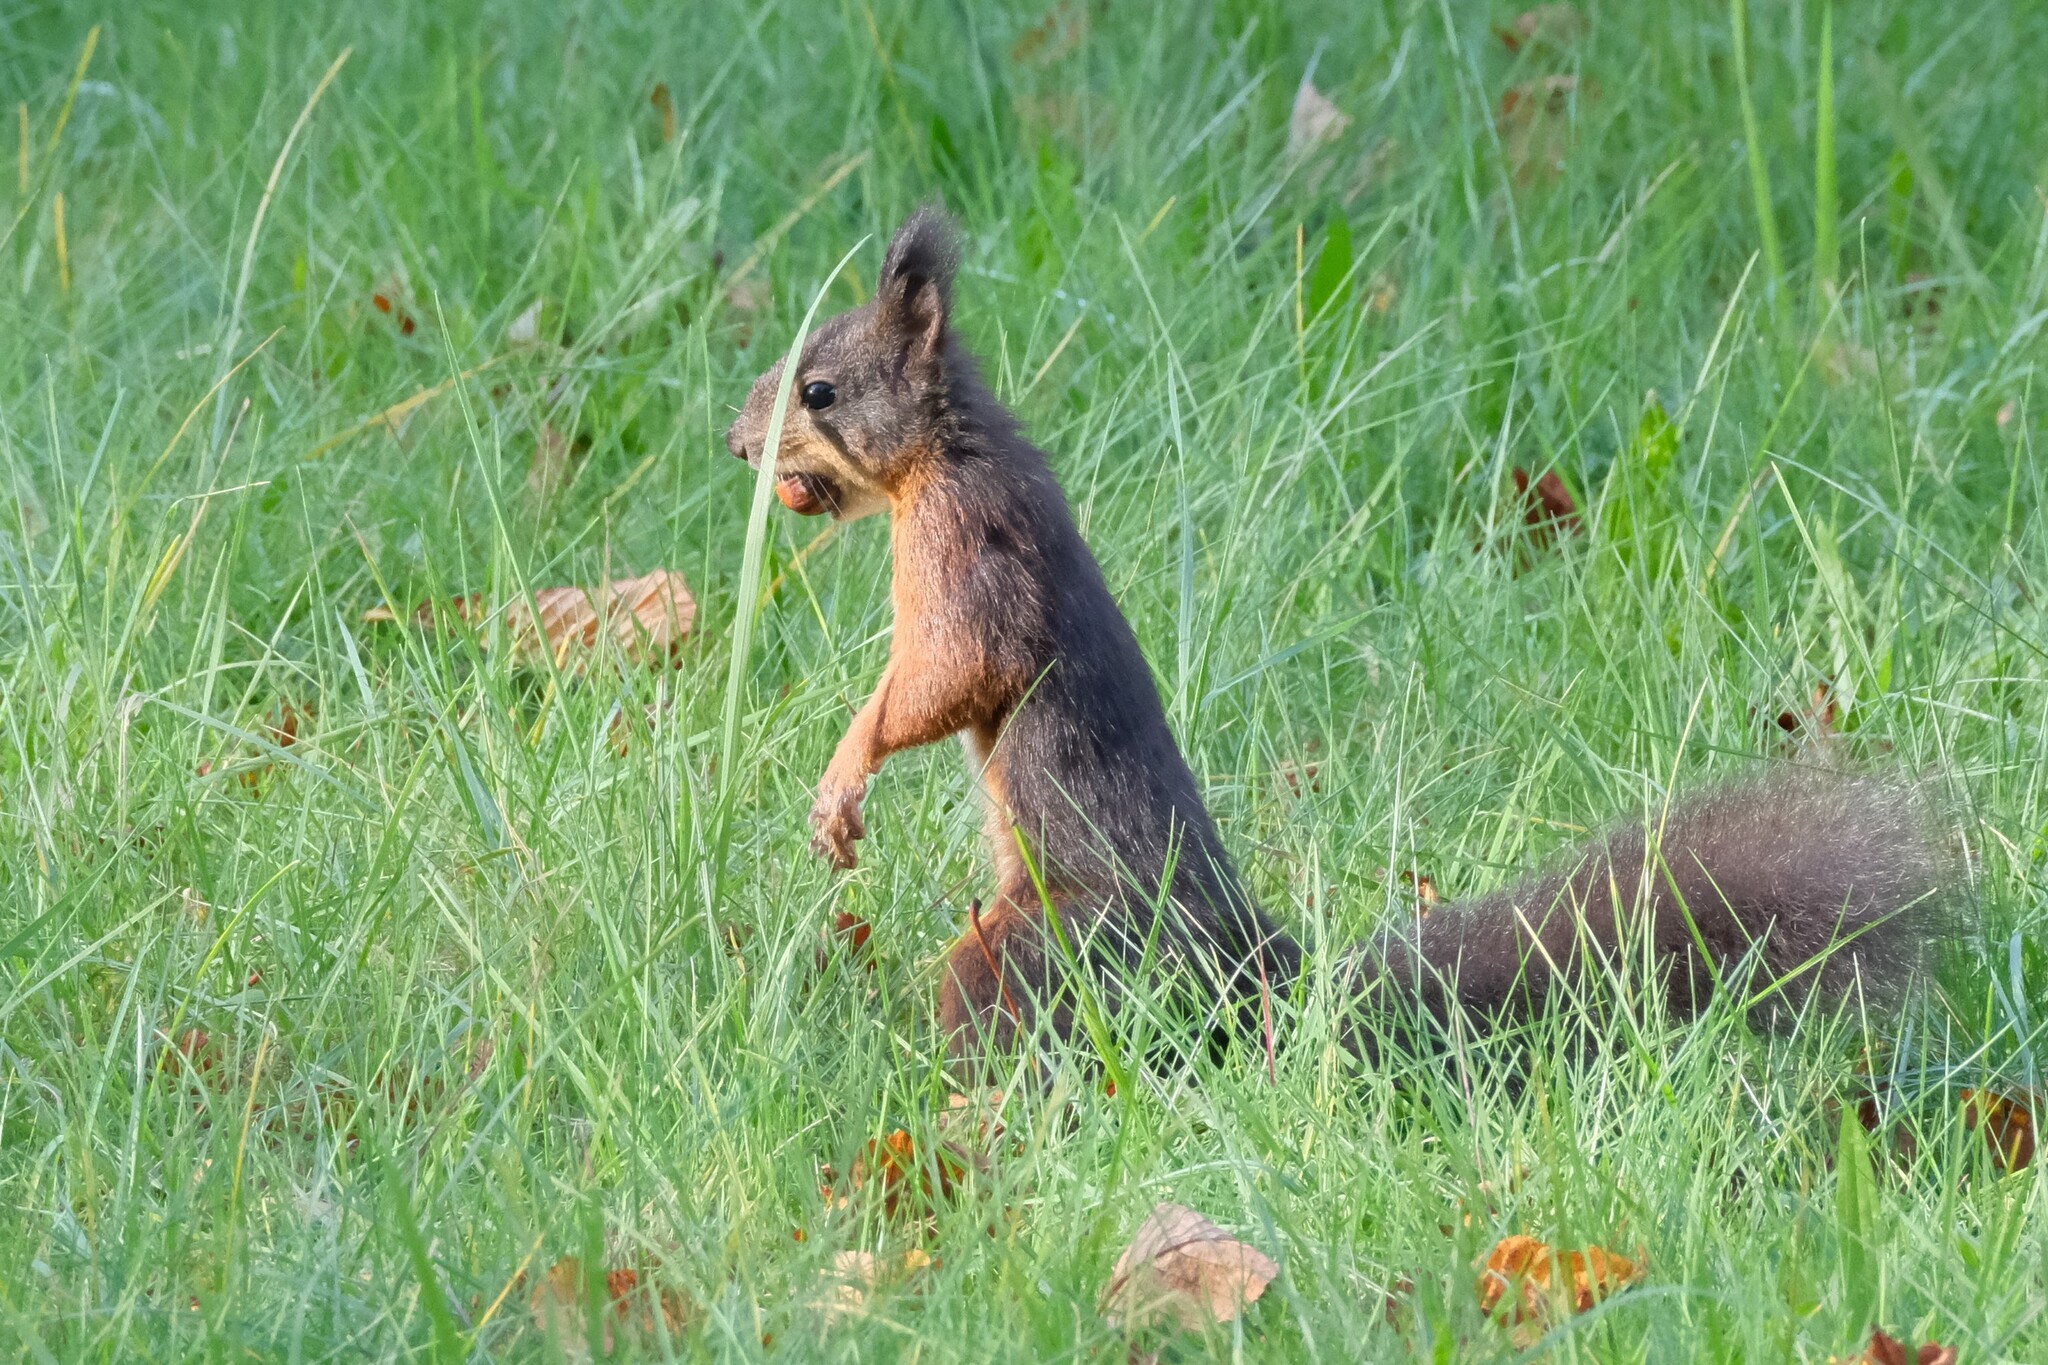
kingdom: Animalia
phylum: Chordata
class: Mammalia
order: Rodentia
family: Sciuridae
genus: Sciurus
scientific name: Sciurus vulgaris
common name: Eurasian red squirrel
